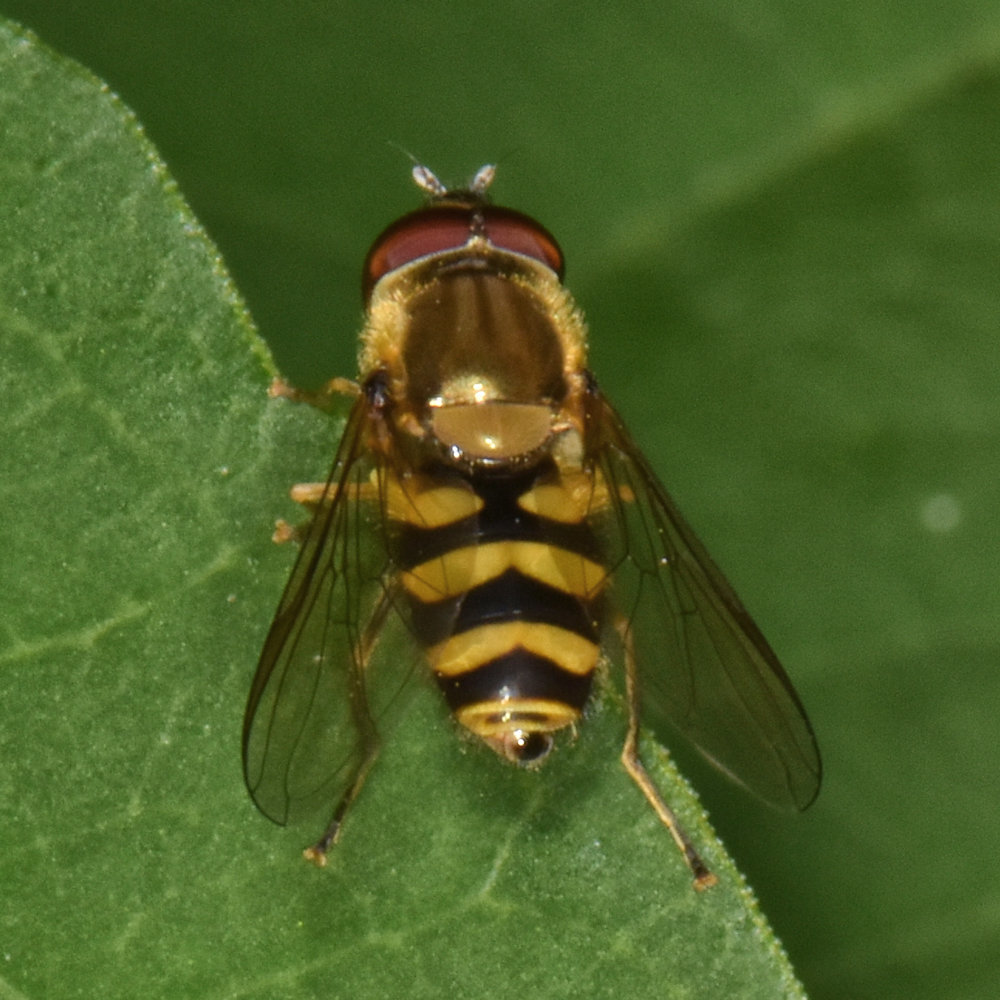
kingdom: Animalia
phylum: Arthropoda
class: Insecta
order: Diptera
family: Syrphidae
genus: Syrphus
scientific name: Syrphus
